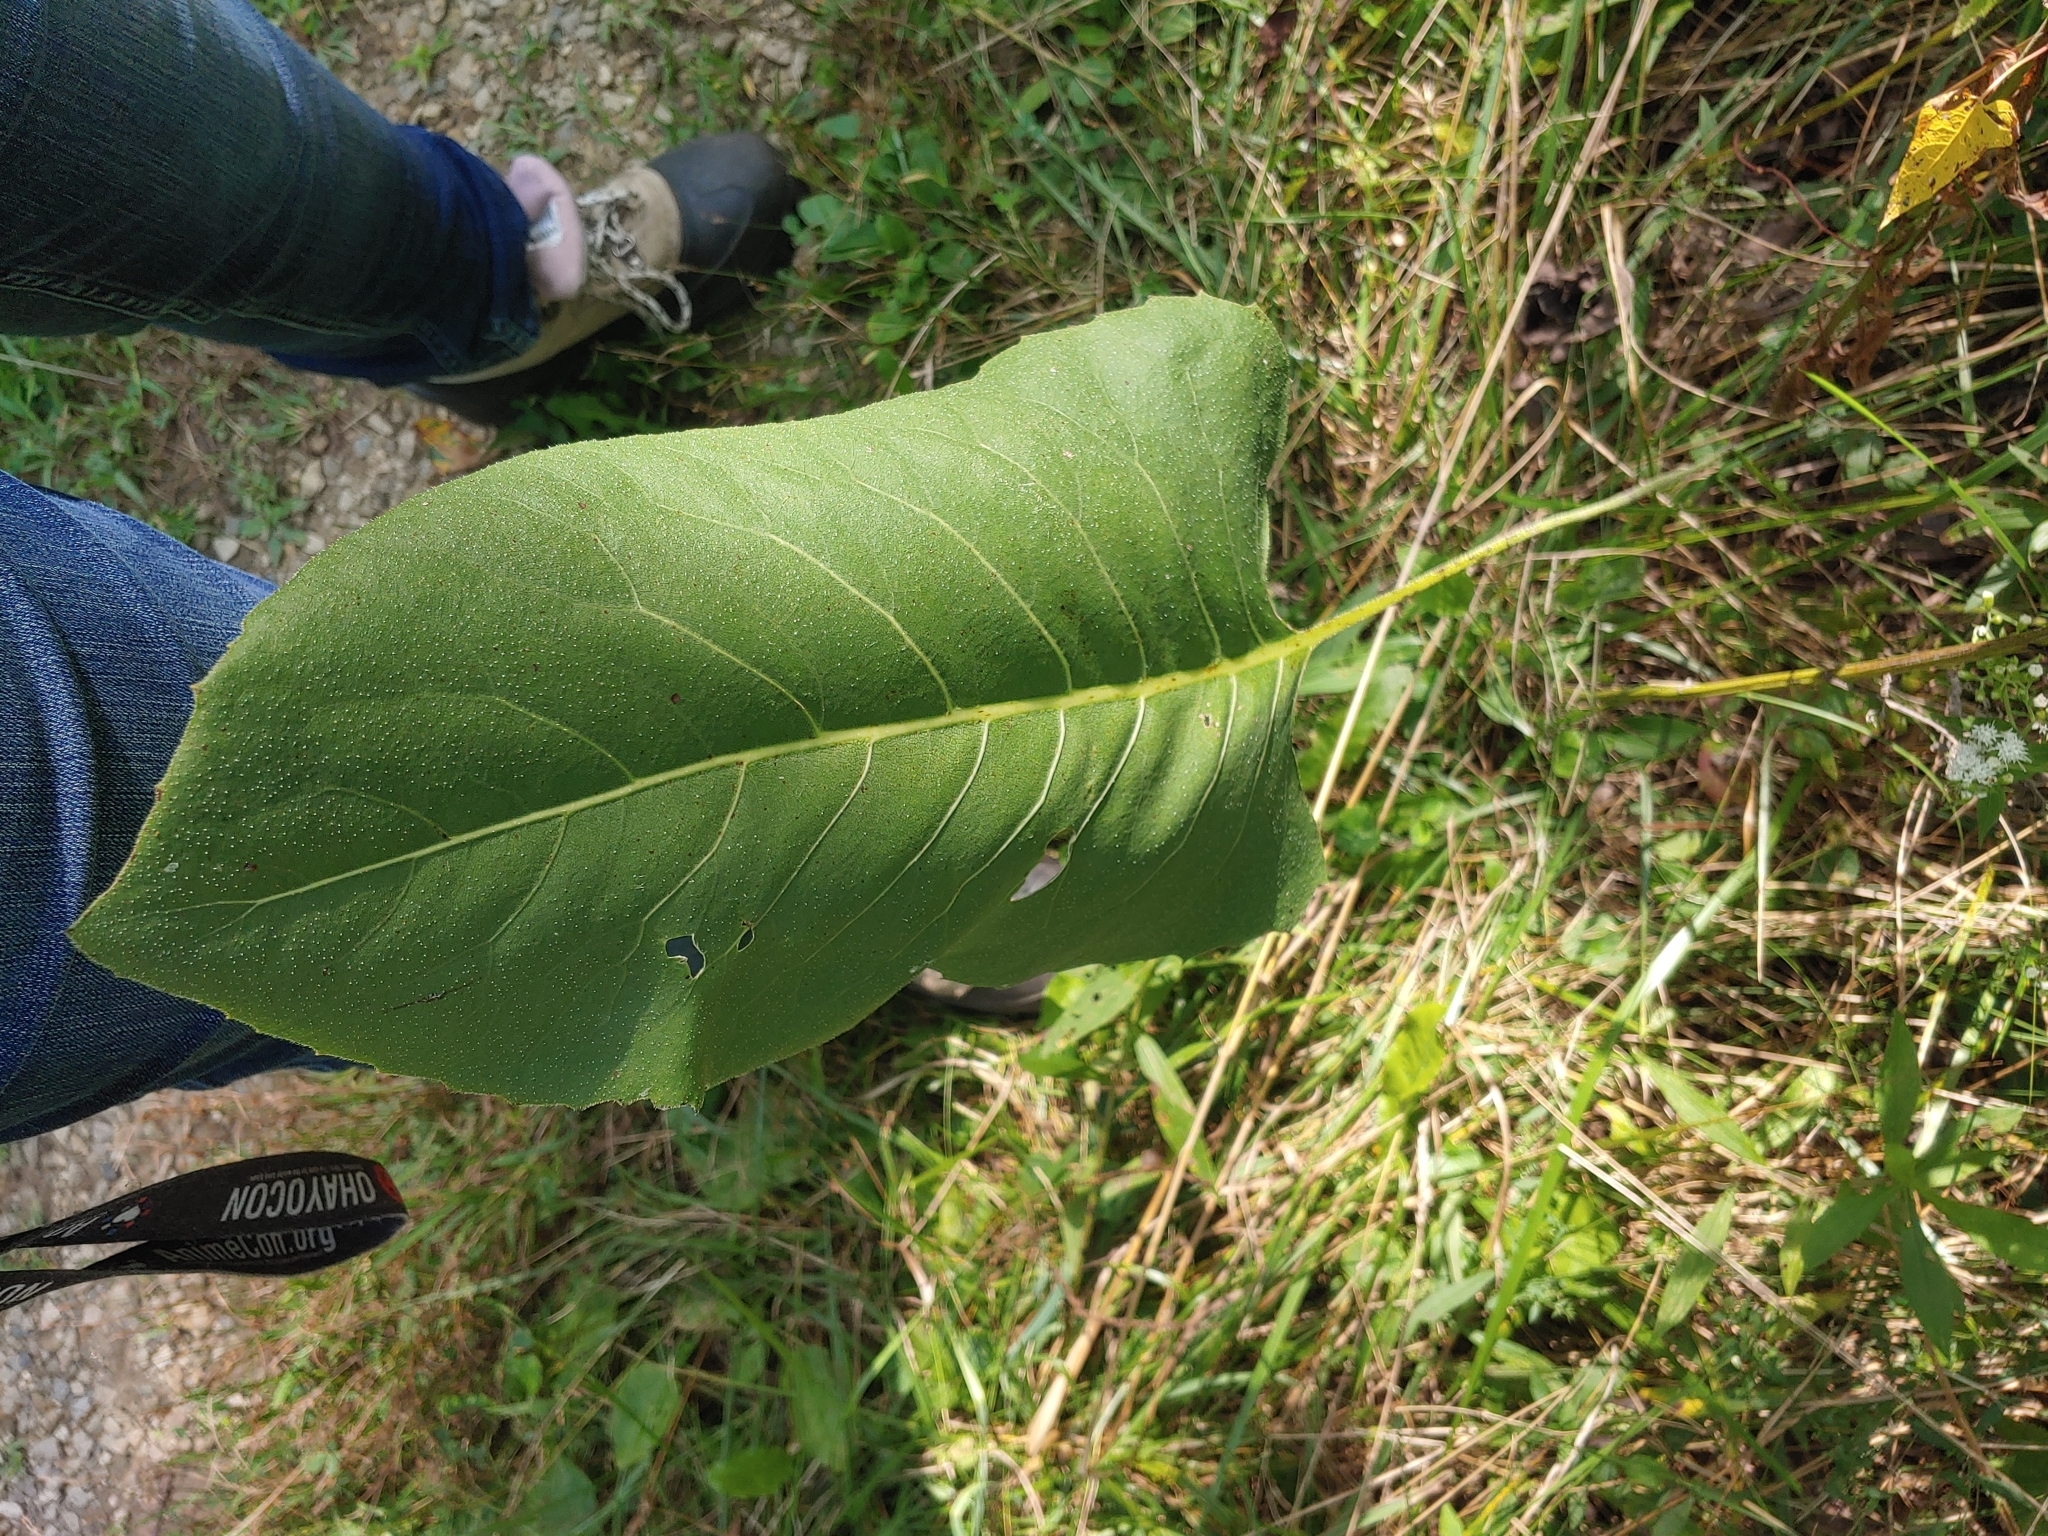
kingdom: Plantae
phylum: Tracheophyta
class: Magnoliopsida
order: Asterales
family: Asteraceae
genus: Silphium
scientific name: Silphium terebinthinaceum
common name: Basal-leaf rosinweed
